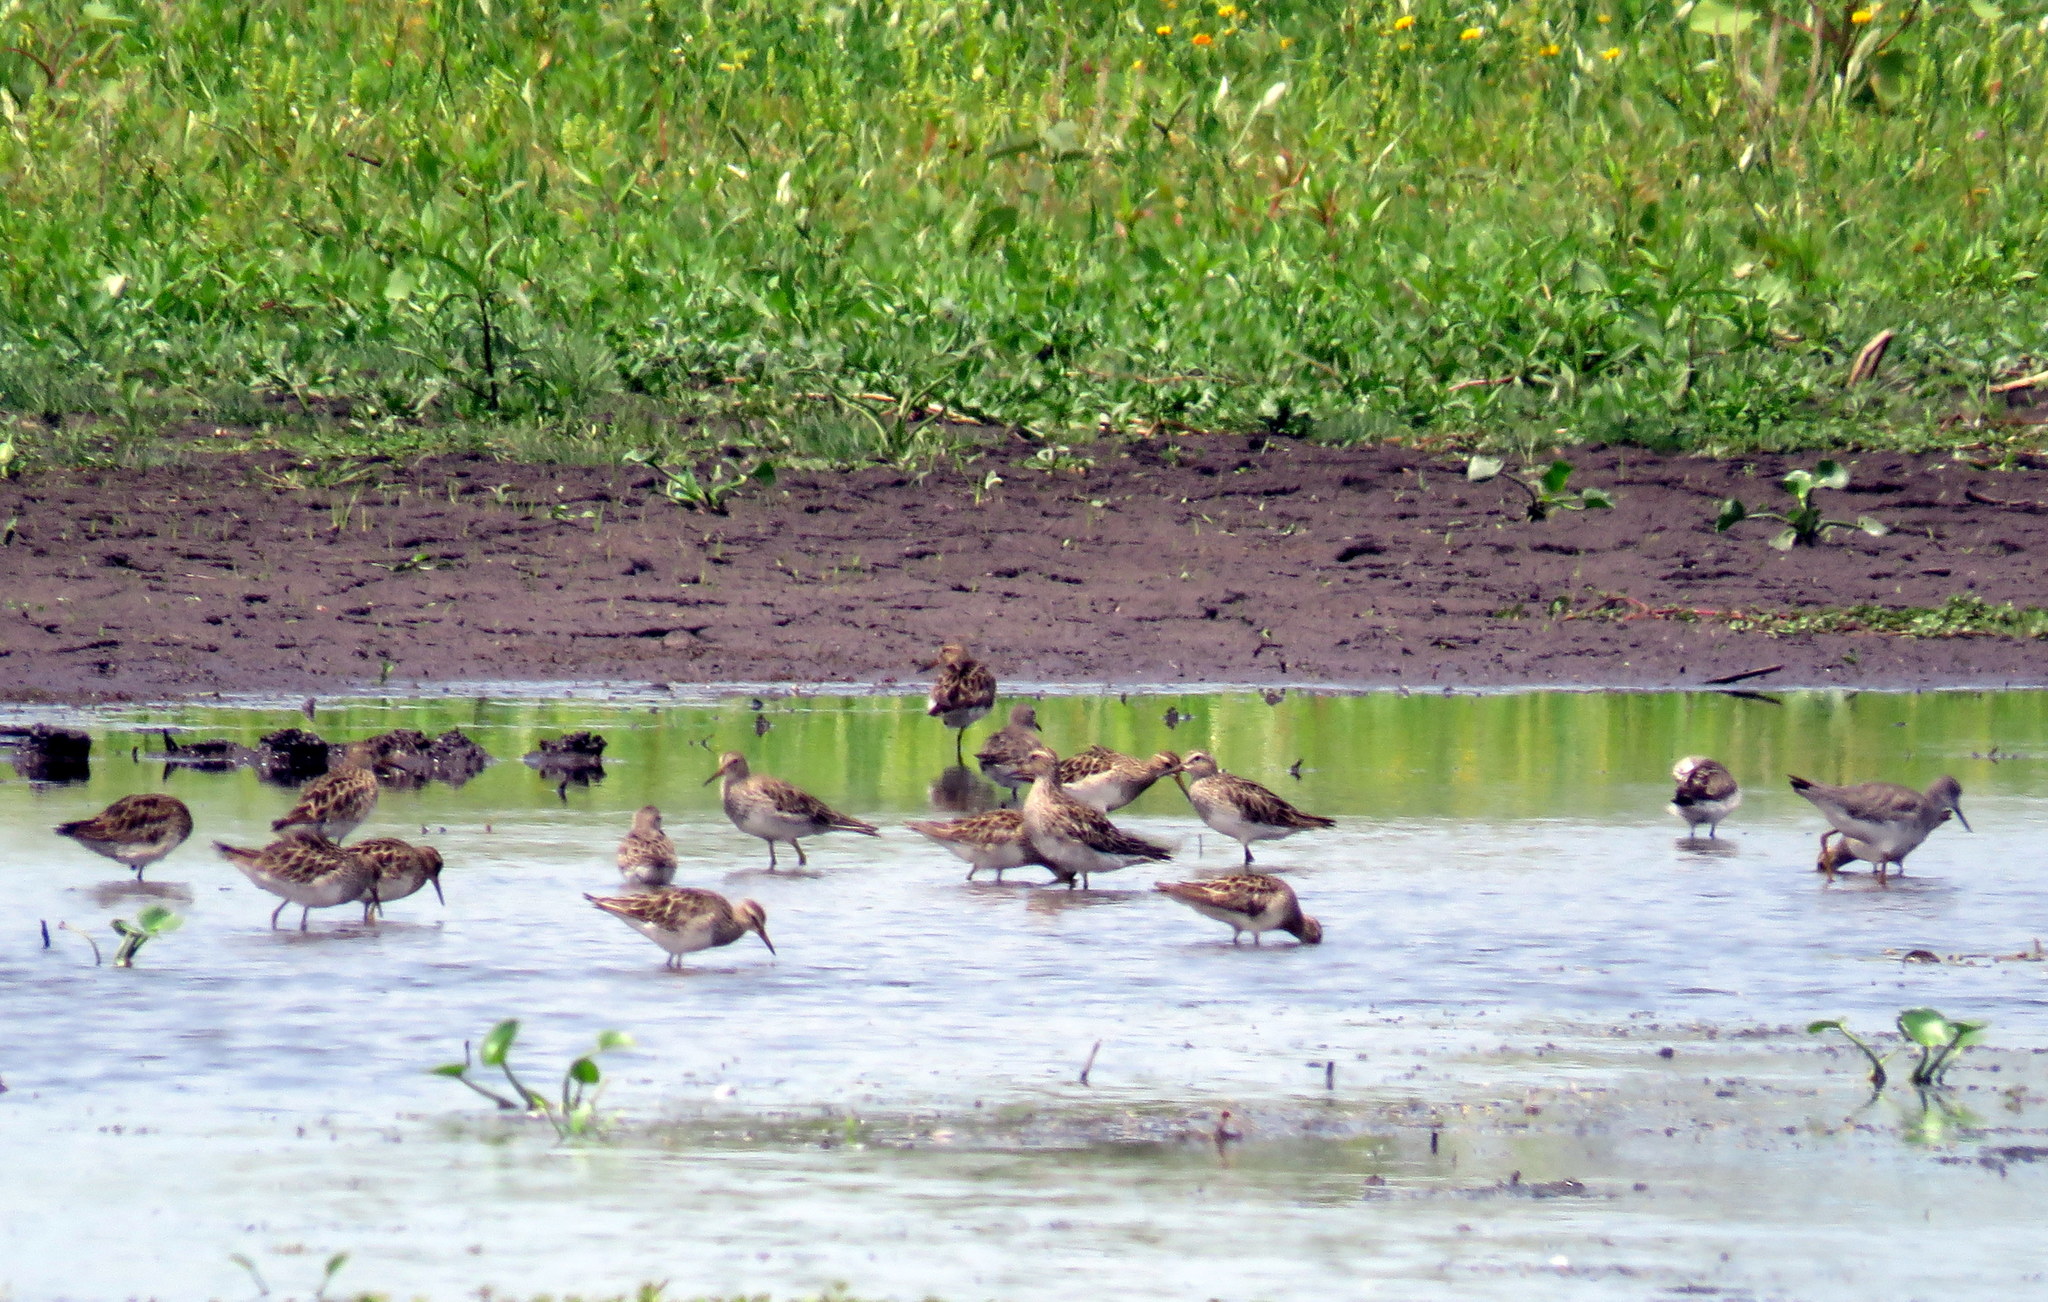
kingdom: Animalia
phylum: Chordata
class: Aves
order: Charadriiformes
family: Scolopacidae
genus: Calidris
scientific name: Calidris melanotos
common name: Pectoral sandpiper
